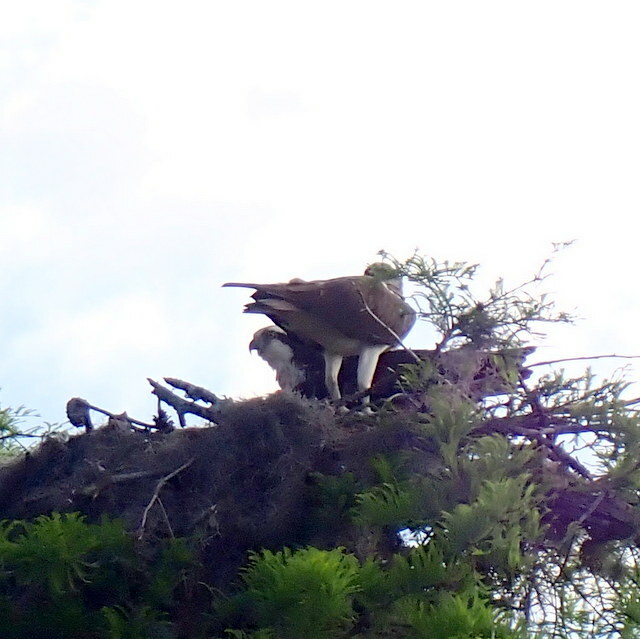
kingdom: Animalia
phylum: Chordata
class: Aves
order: Accipitriformes
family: Pandionidae
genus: Pandion
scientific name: Pandion haliaetus
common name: Osprey
